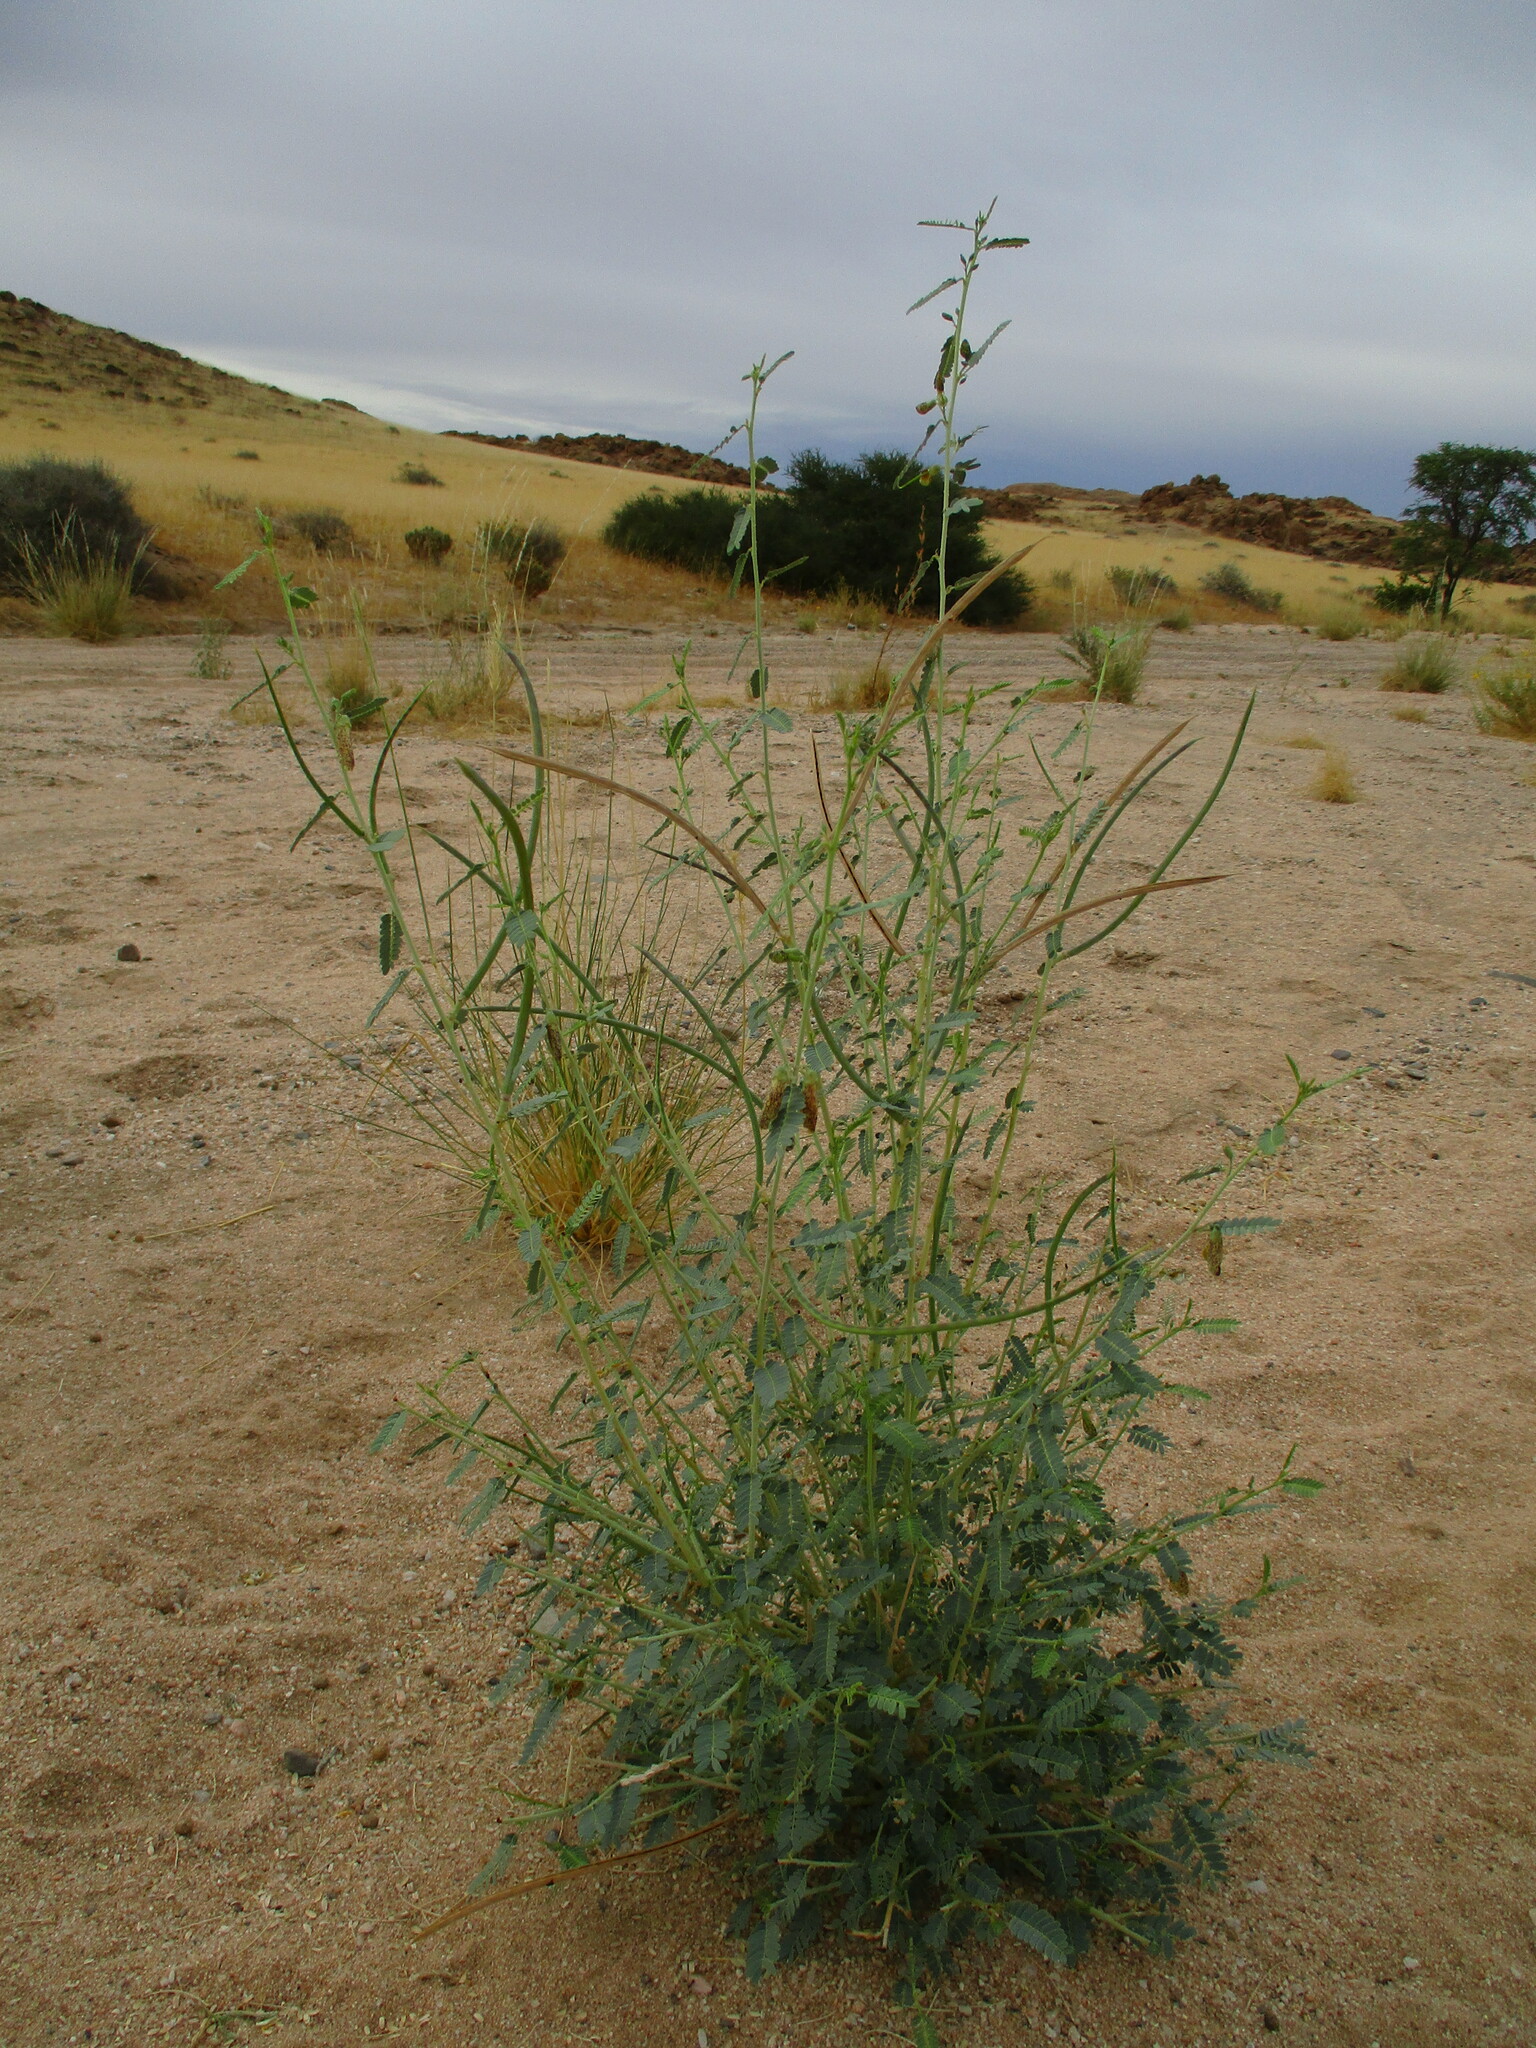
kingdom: Plantae
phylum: Tracheophyta
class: Magnoliopsida
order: Fabales
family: Fabaceae
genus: Sesbania
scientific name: Sesbania pachycarpa
